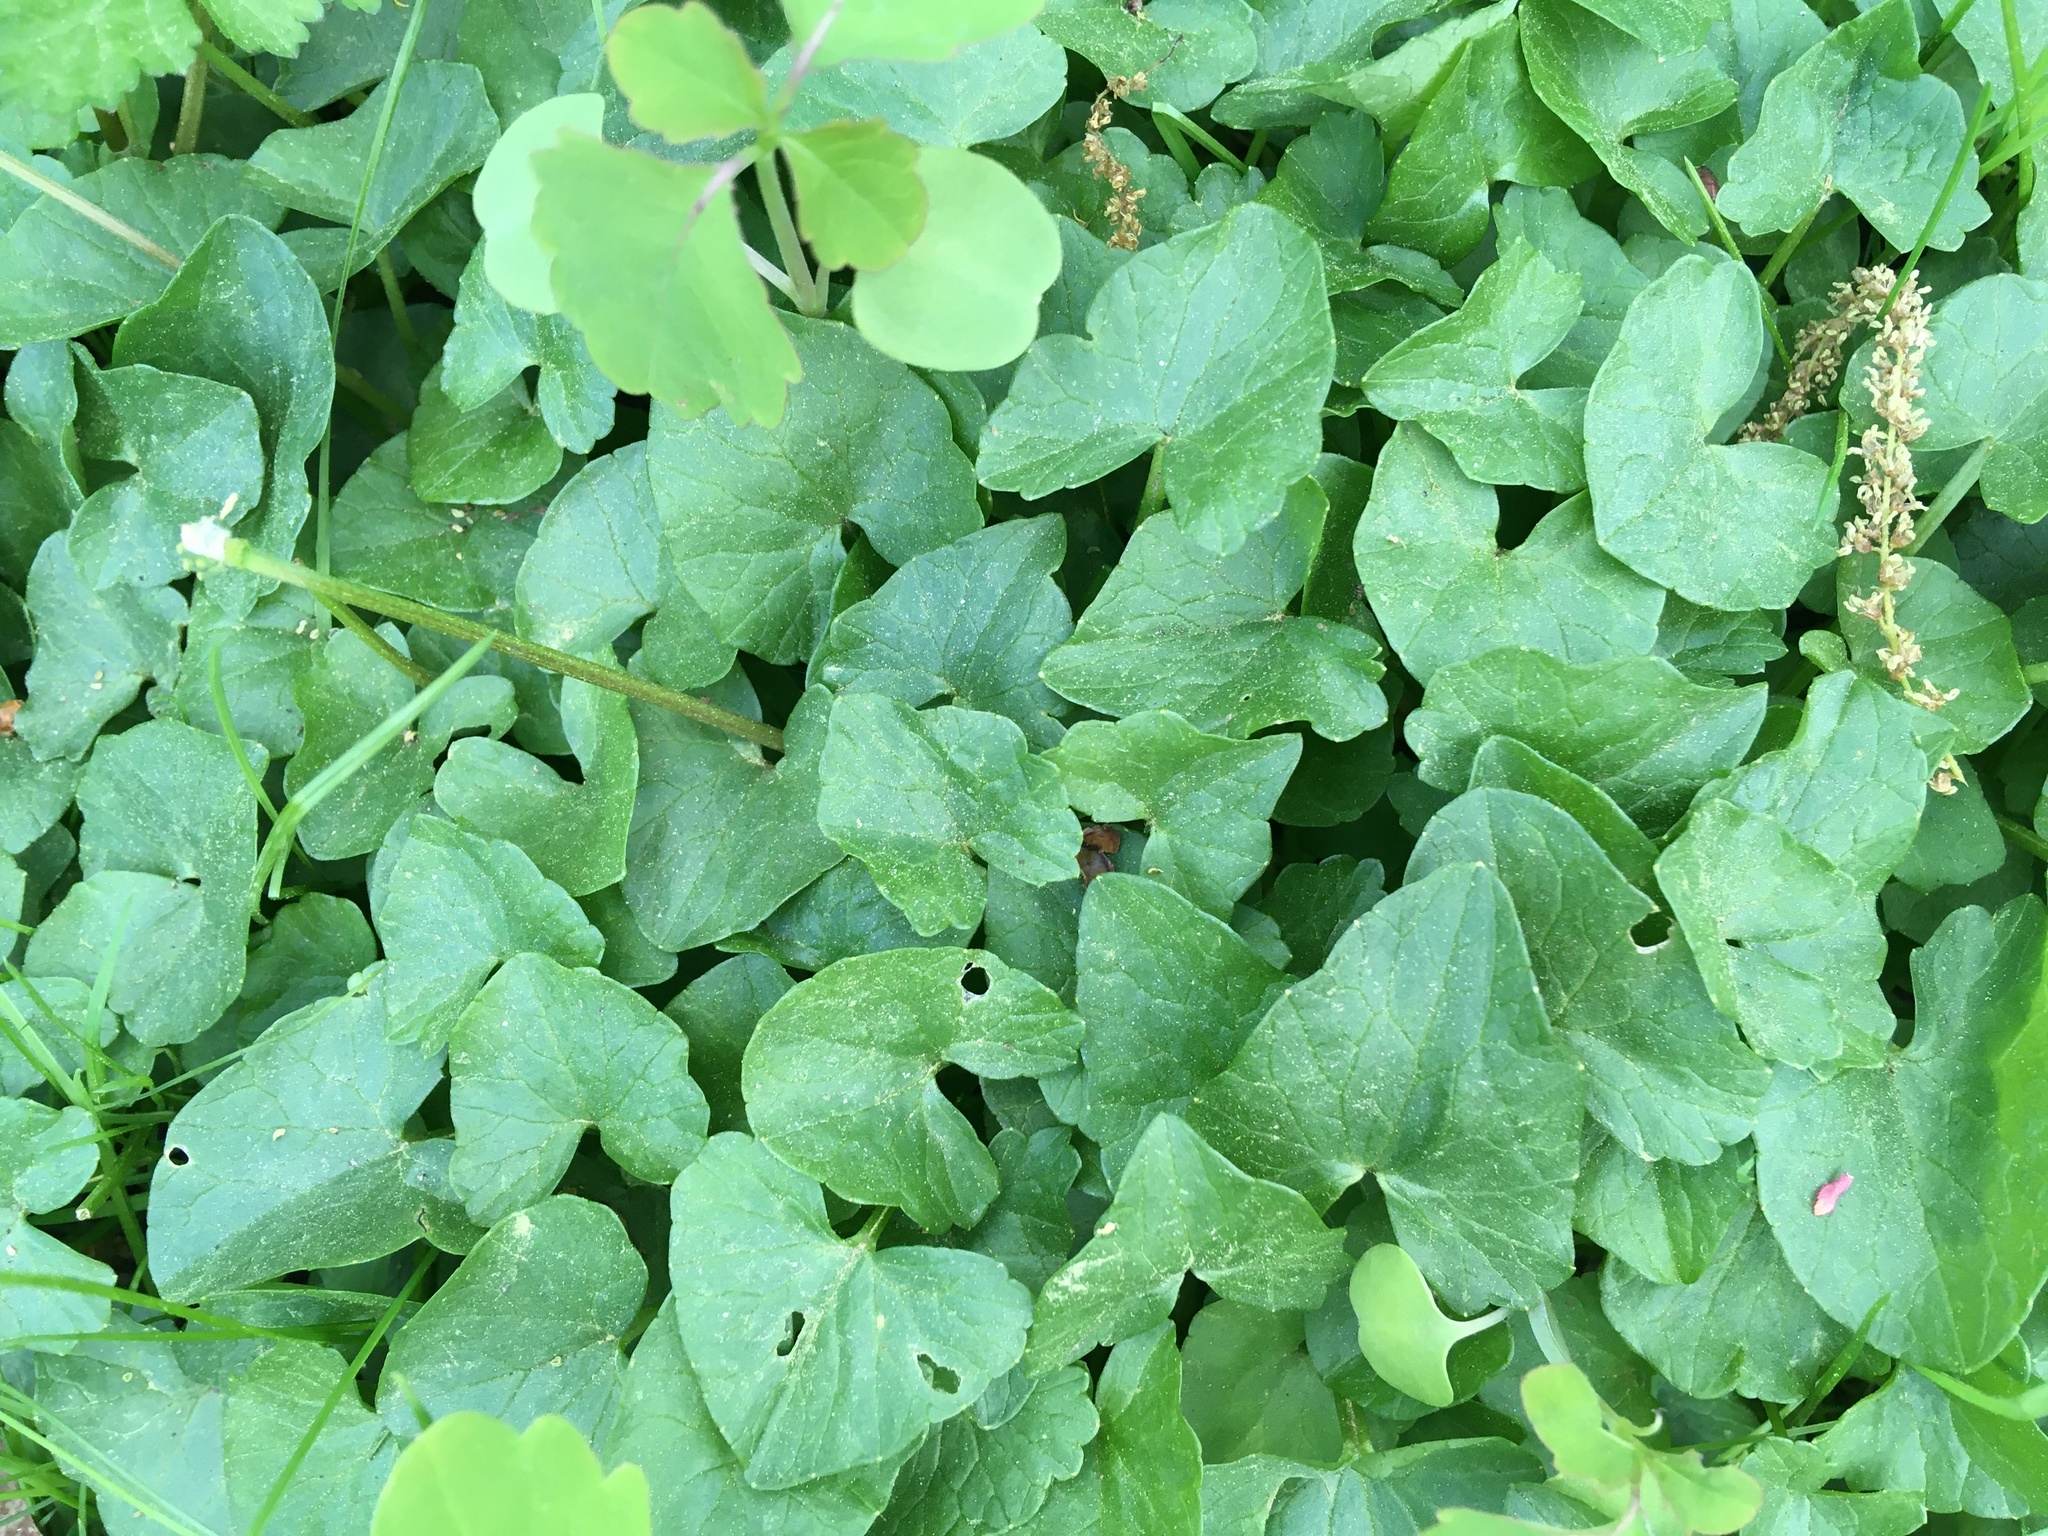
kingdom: Plantae
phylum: Tracheophyta
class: Magnoliopsida
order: Ranunculales
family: Ranunculaceae
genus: Ficaria
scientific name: Ficaria verna
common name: Lesser celandine
